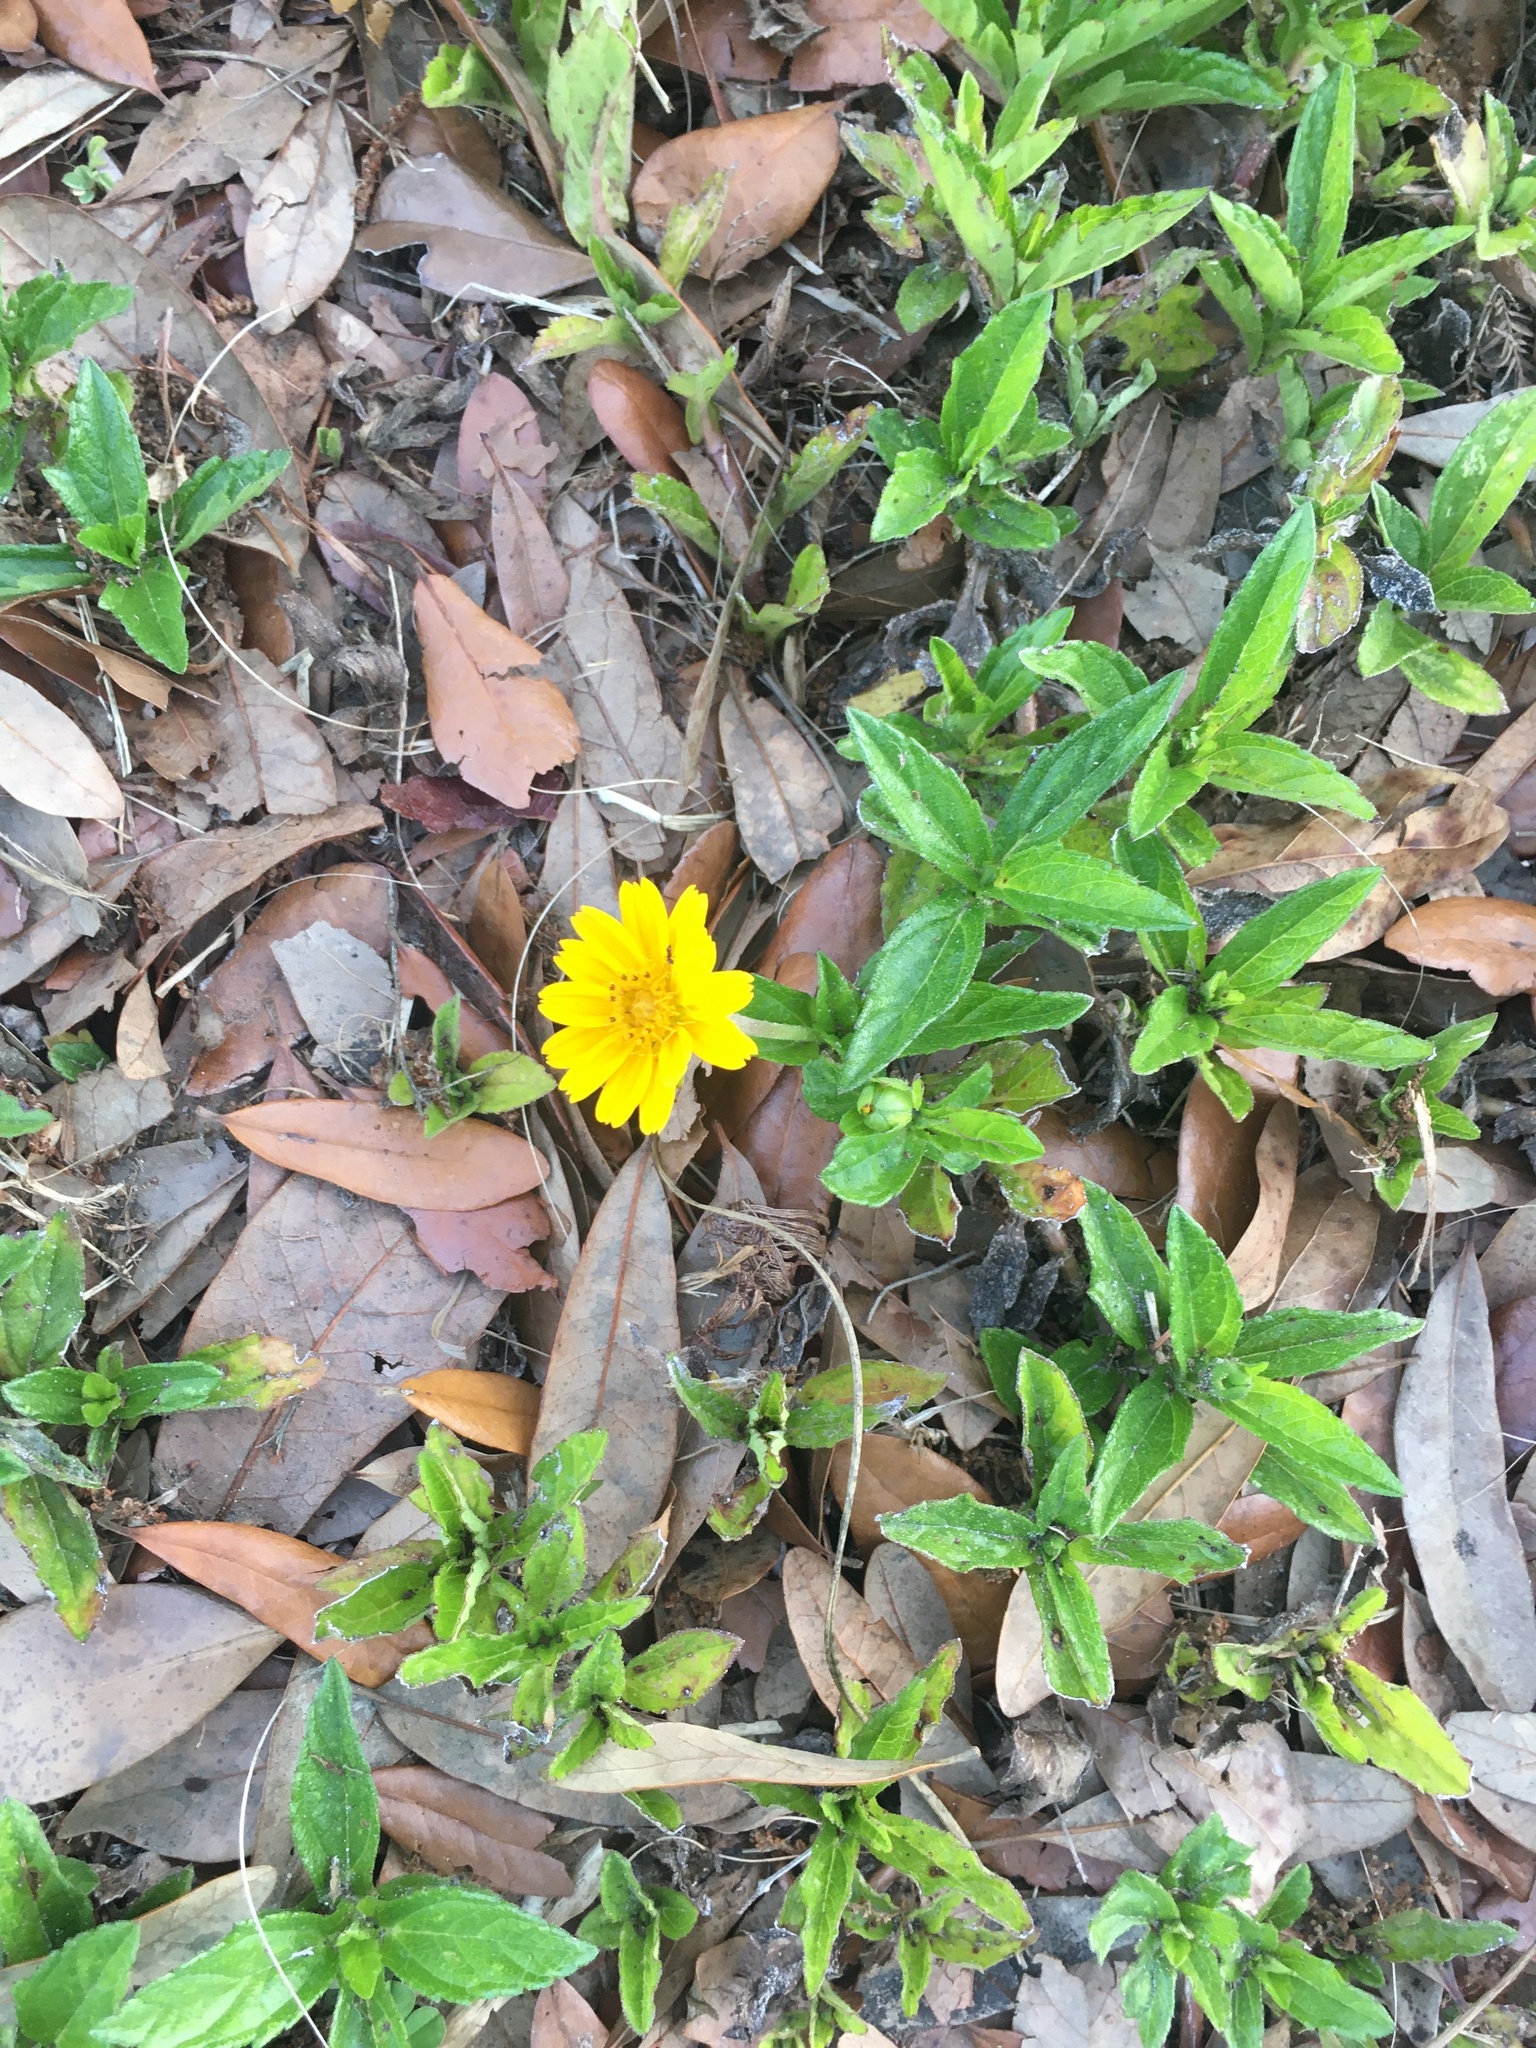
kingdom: Plantae
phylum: Tracheophyta
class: Magnoliopsida
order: Asterales
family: Asteraceae
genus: Sphagneticola
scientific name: Sphagneticola trilobata
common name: Bay biscayne creeping-oxeye
